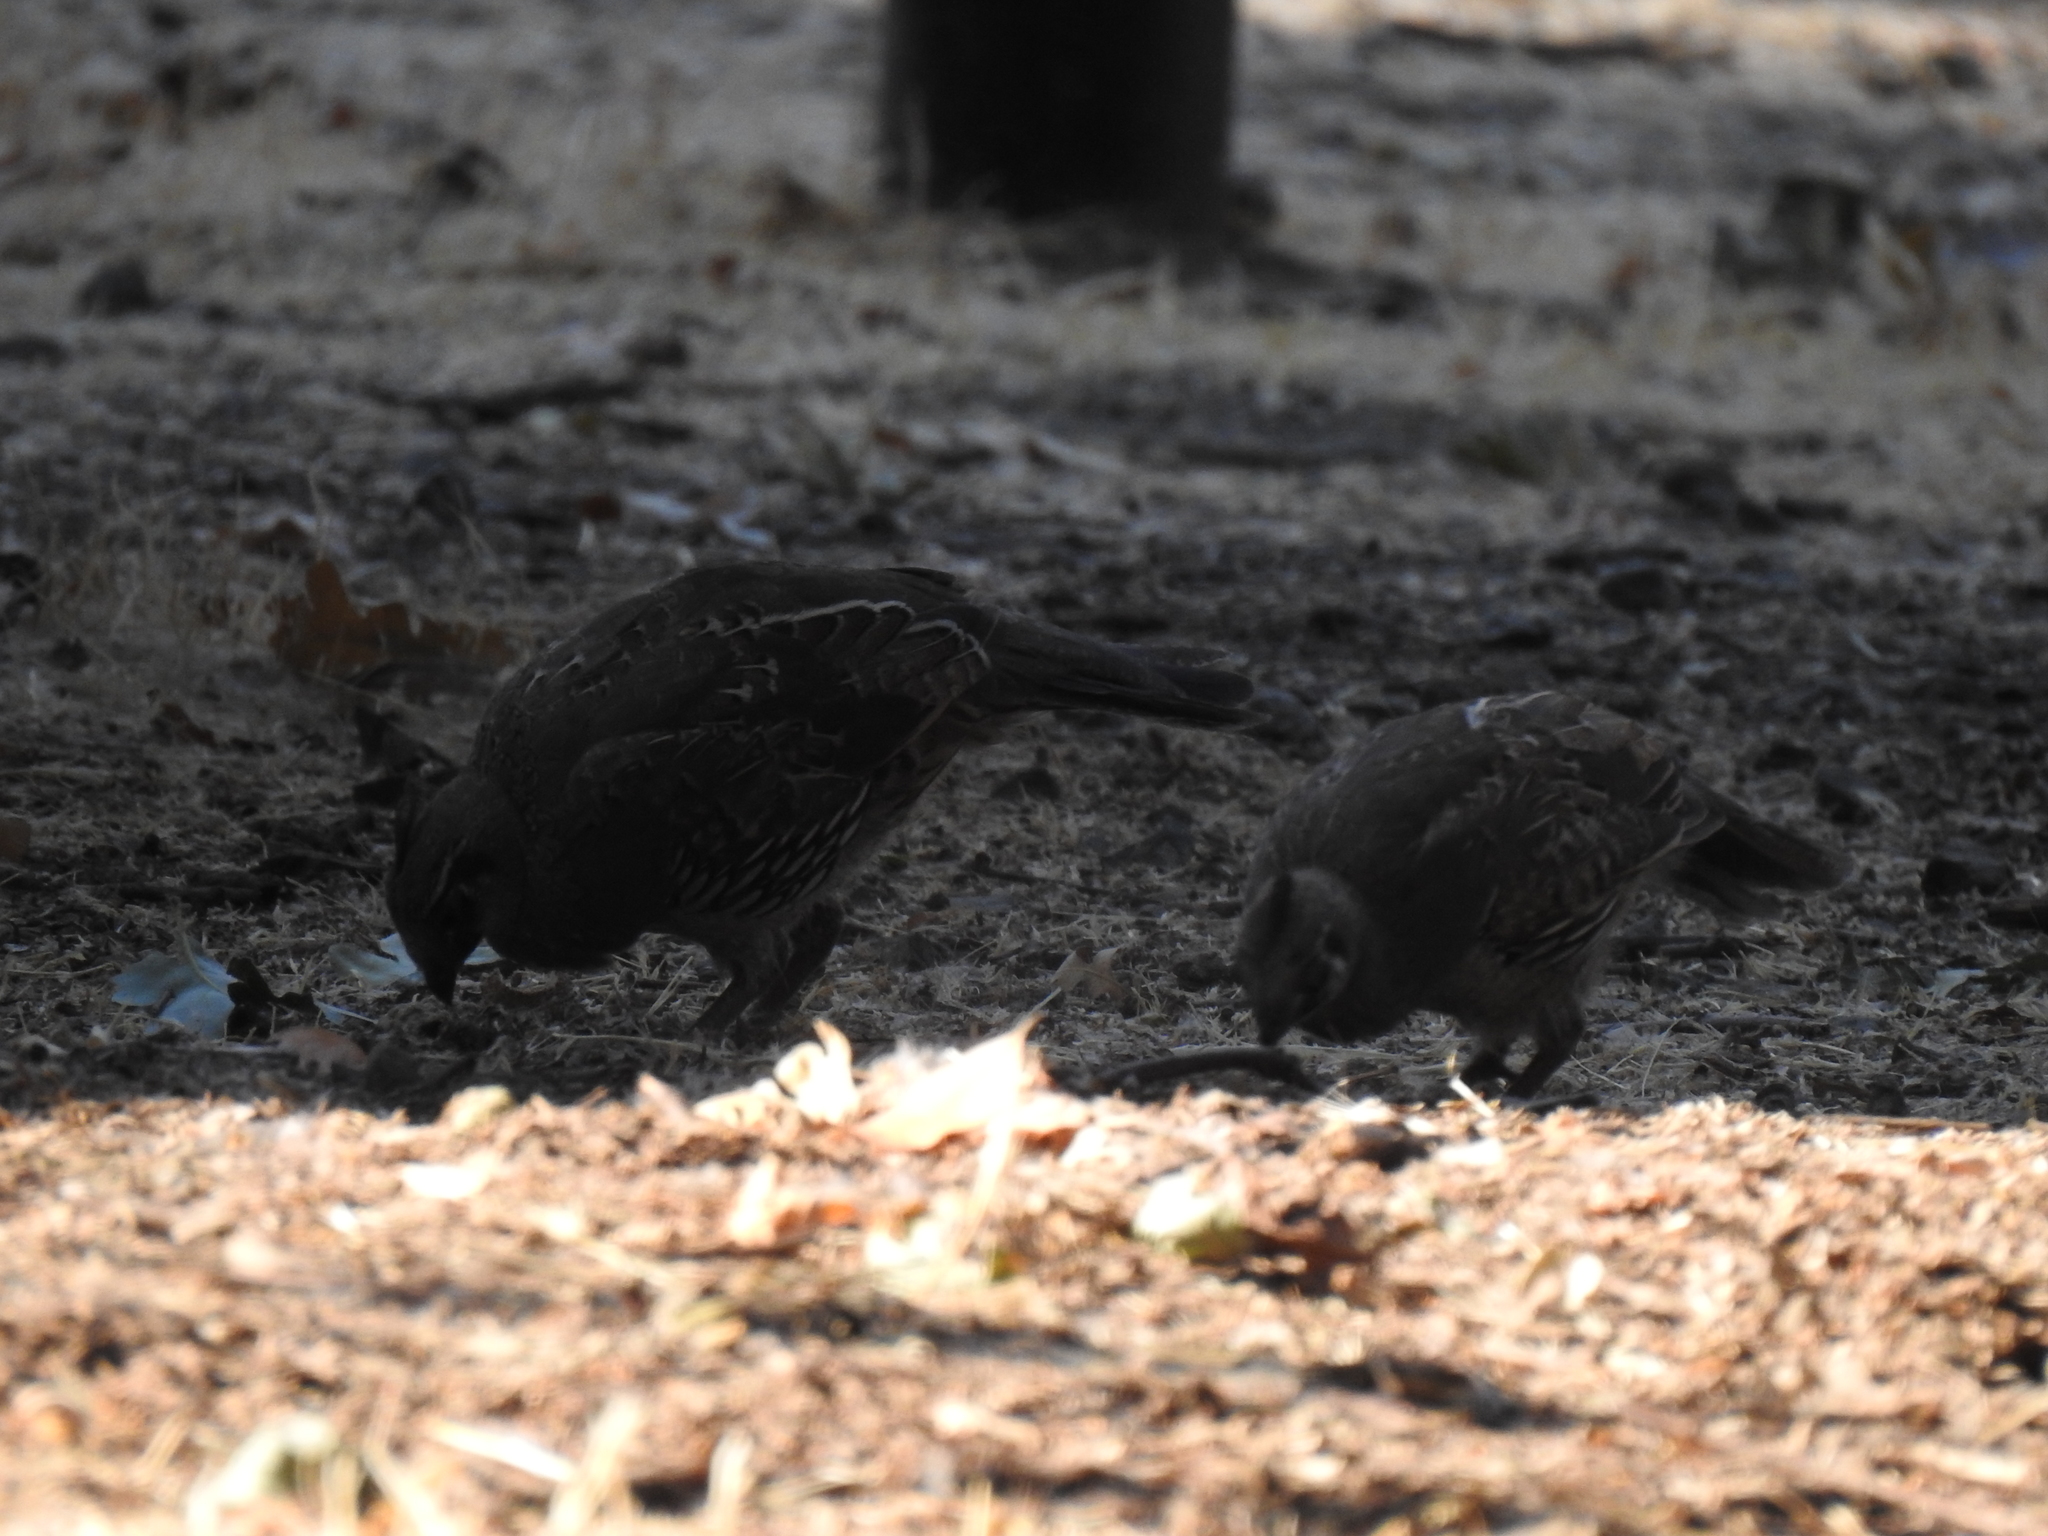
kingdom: Animalia
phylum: Chordata
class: Aves
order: Galliformes
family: Odontophoridae
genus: Callipepla
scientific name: Callipepla californica
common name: California quail
